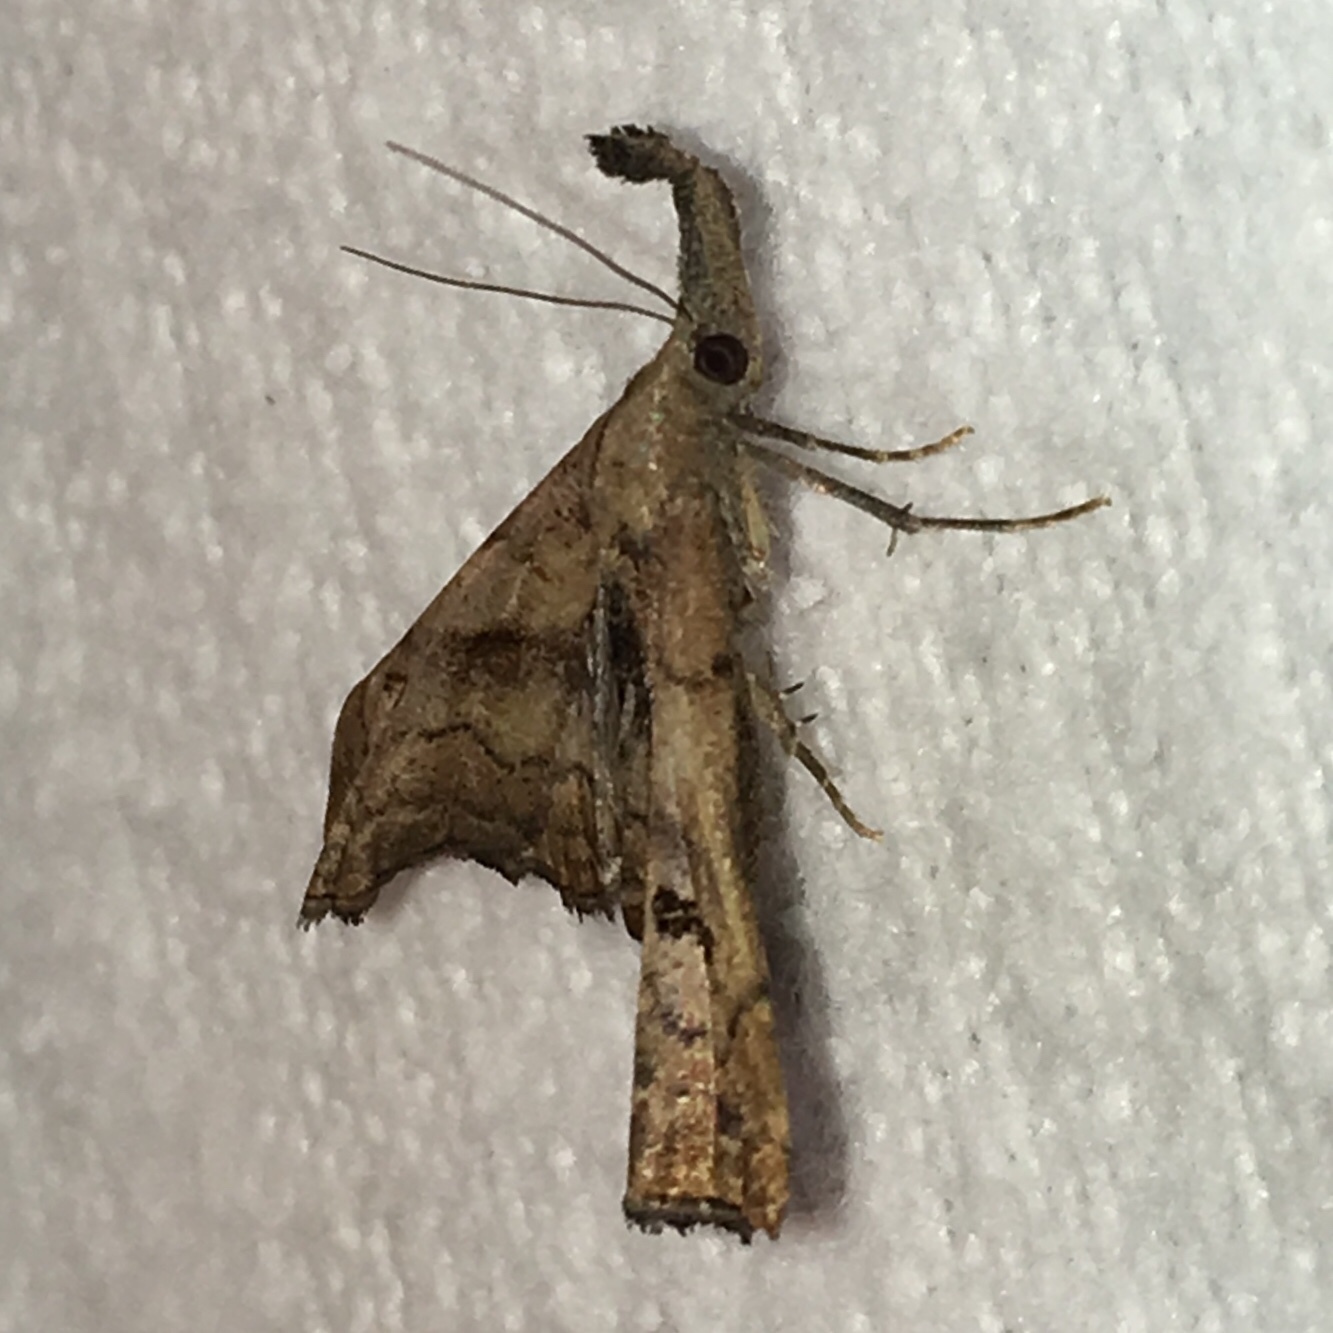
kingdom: Animalia
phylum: Arthropoda
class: Insecta
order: Lepidoptera
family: Erebidae
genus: Palthis
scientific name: Palthis angulalis
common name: Dark-spotted palthis moth
